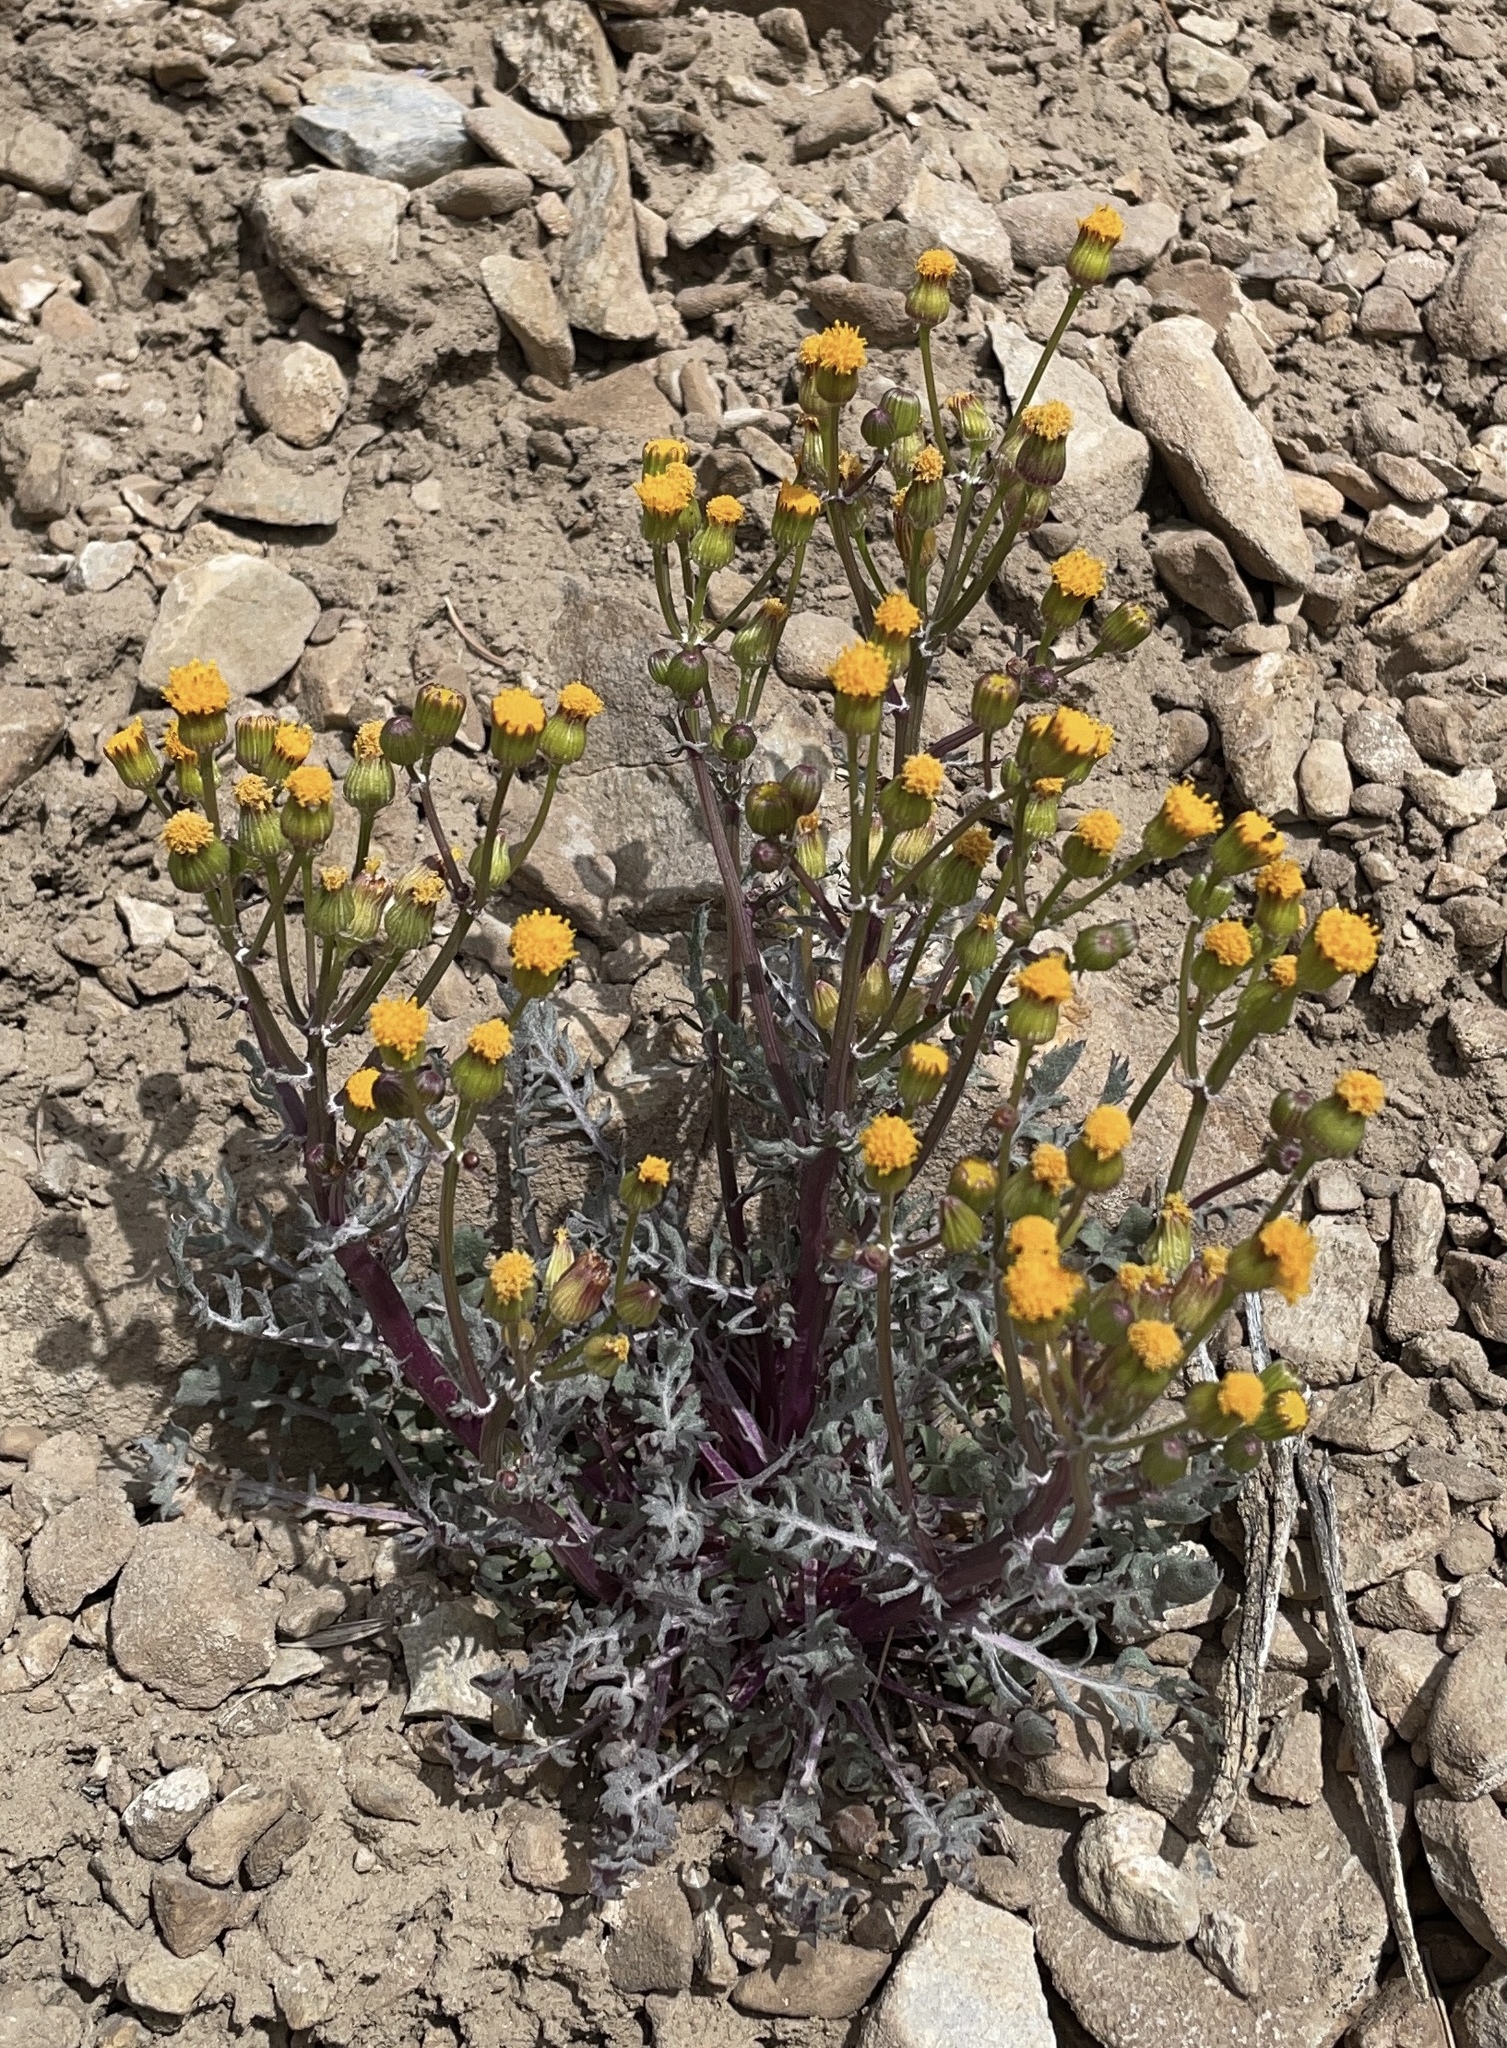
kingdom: Plantae
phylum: Tracheophyta
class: Magnoliopsida
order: Asterales
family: Asteraceae
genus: Packera
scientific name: Packera multilobata
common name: Lobe-leaf groundsel
